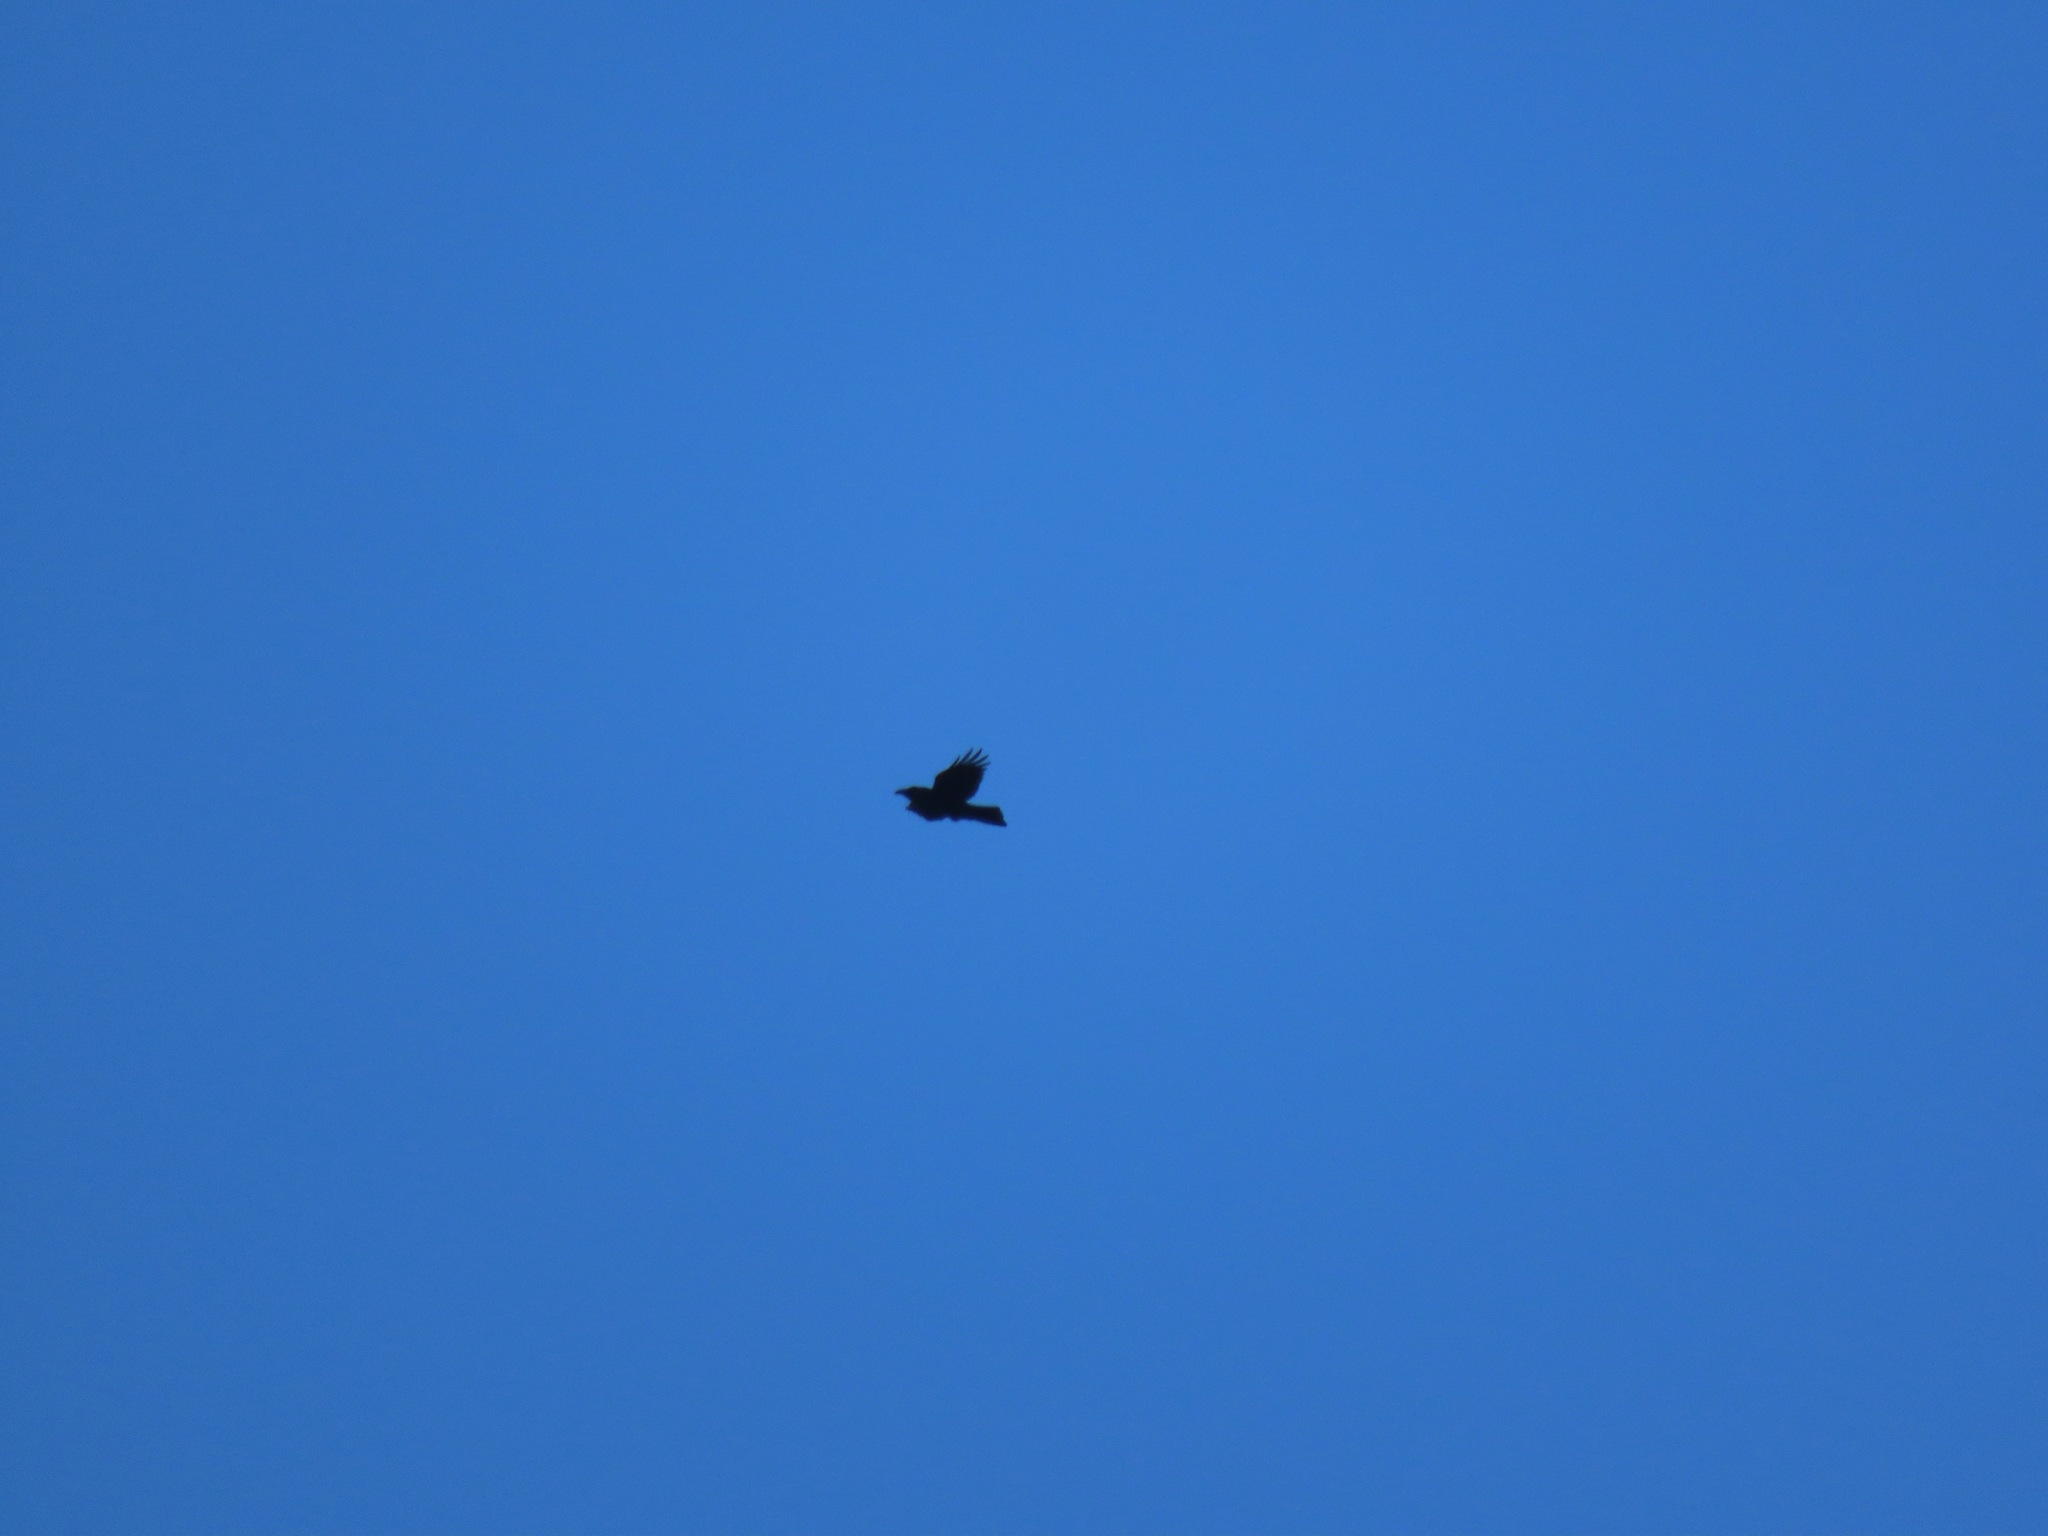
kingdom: Animalia
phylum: Chordata
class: Aves
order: Passeriformes
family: Corvidae
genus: Corvus
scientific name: Corvus corax
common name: Common raven
